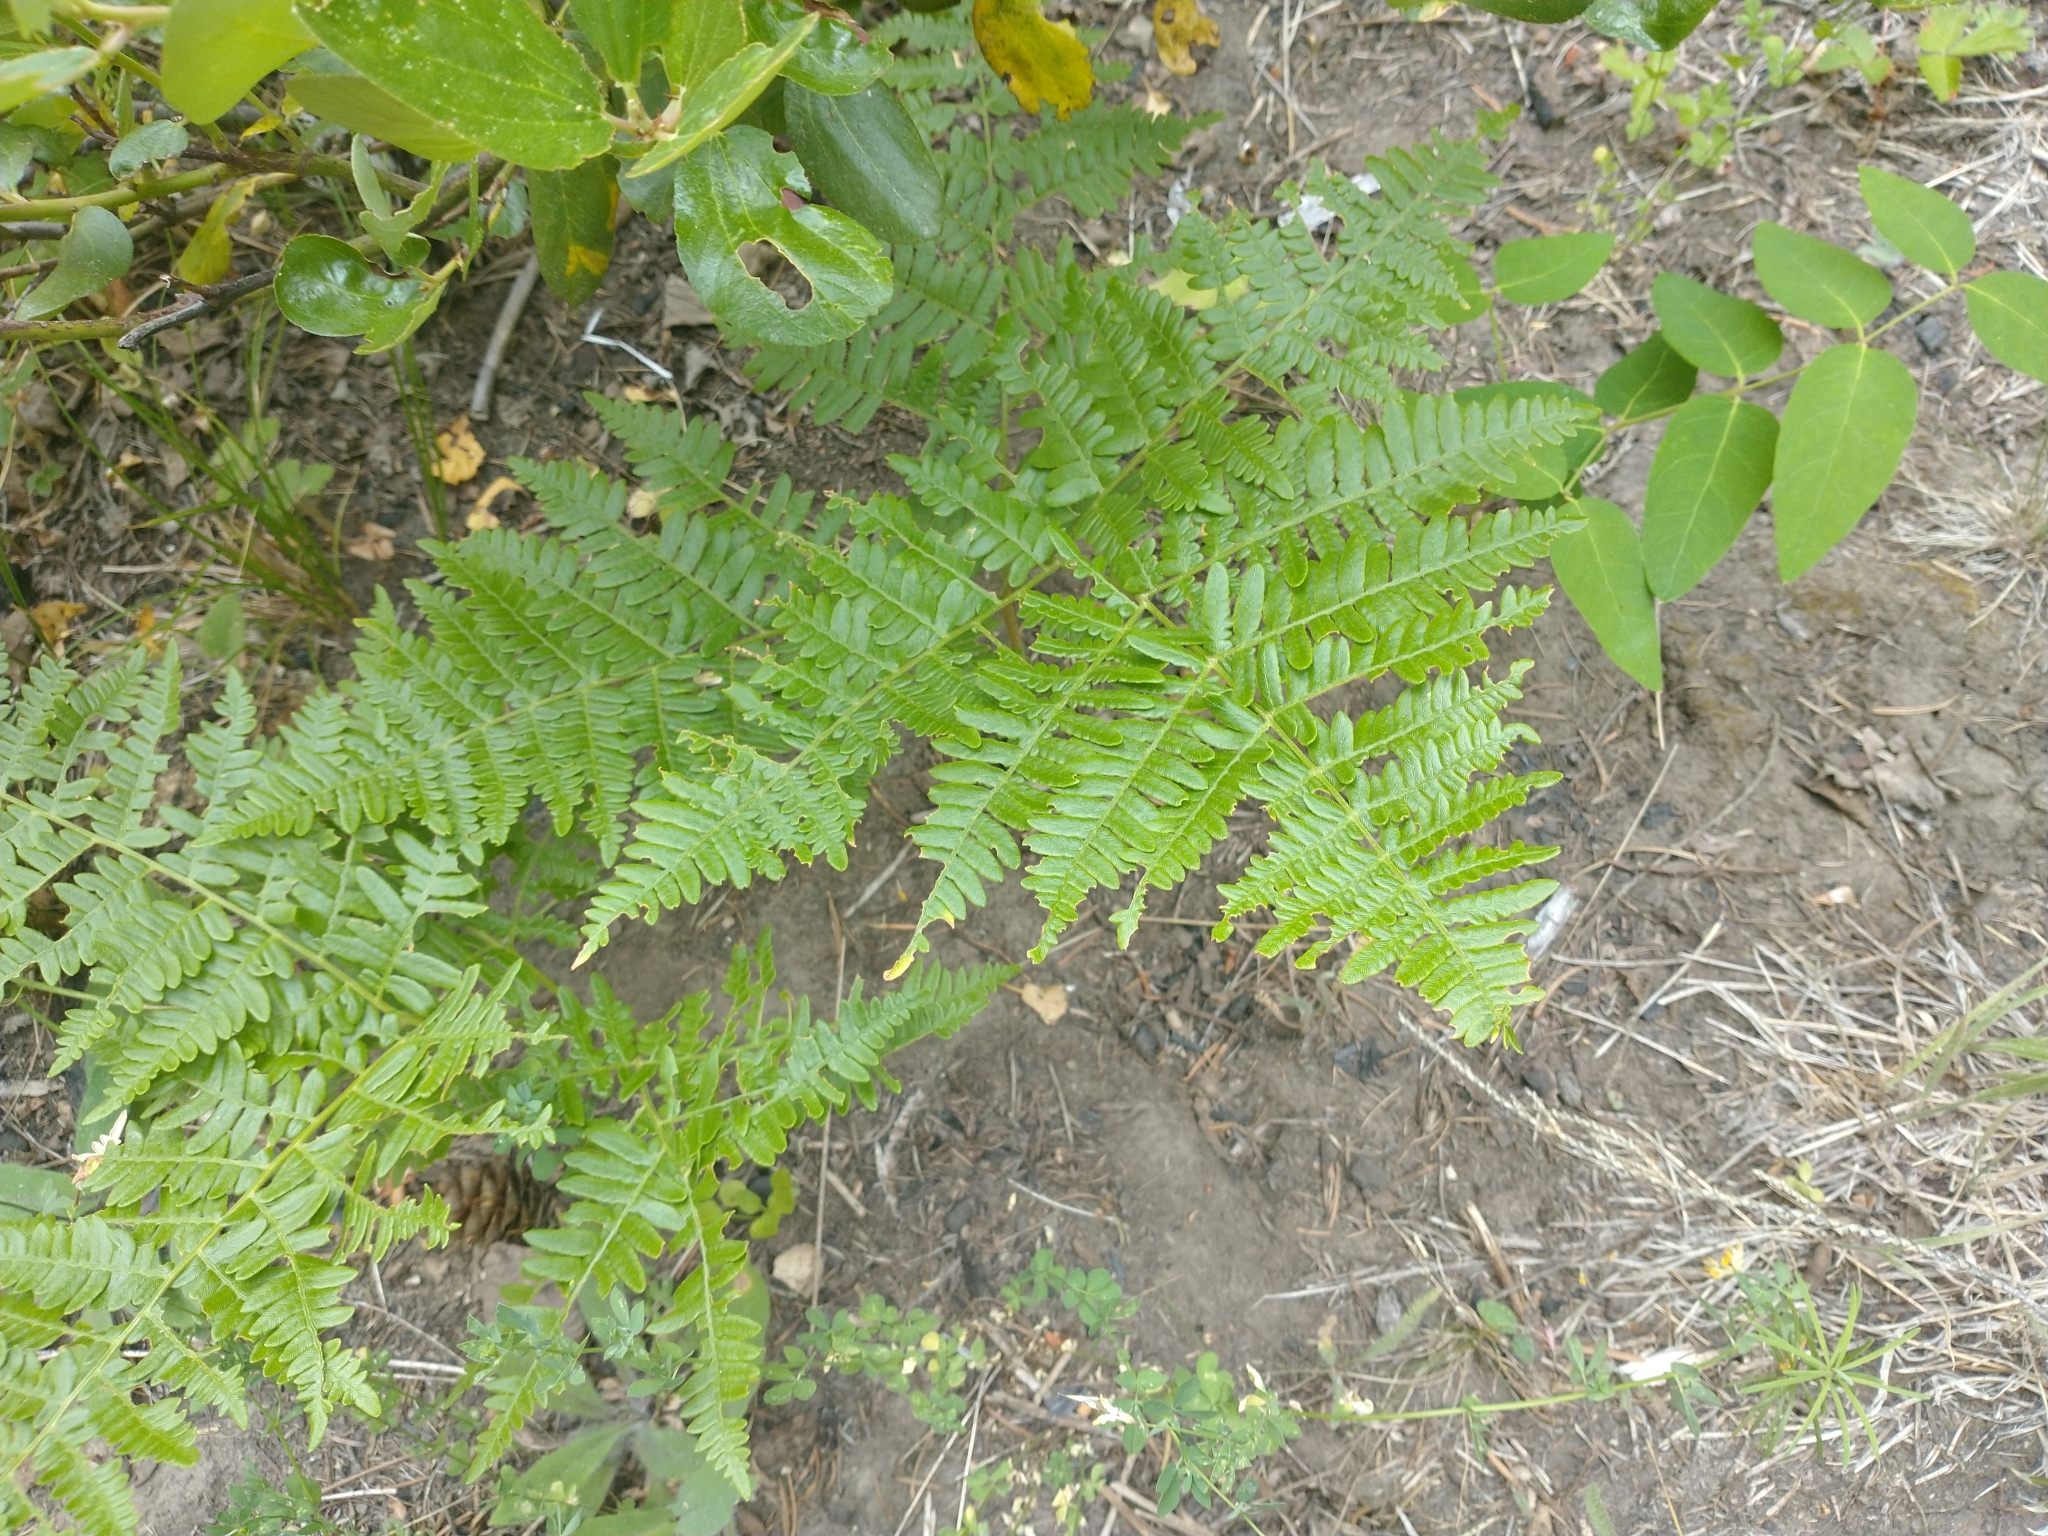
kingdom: Plantae
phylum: Tracheophyta
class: Polypodiopsida
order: Polypodiales
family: Dennstaedtiaceae
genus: Pteridium
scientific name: Pteridium aquilinum
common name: Bracken
